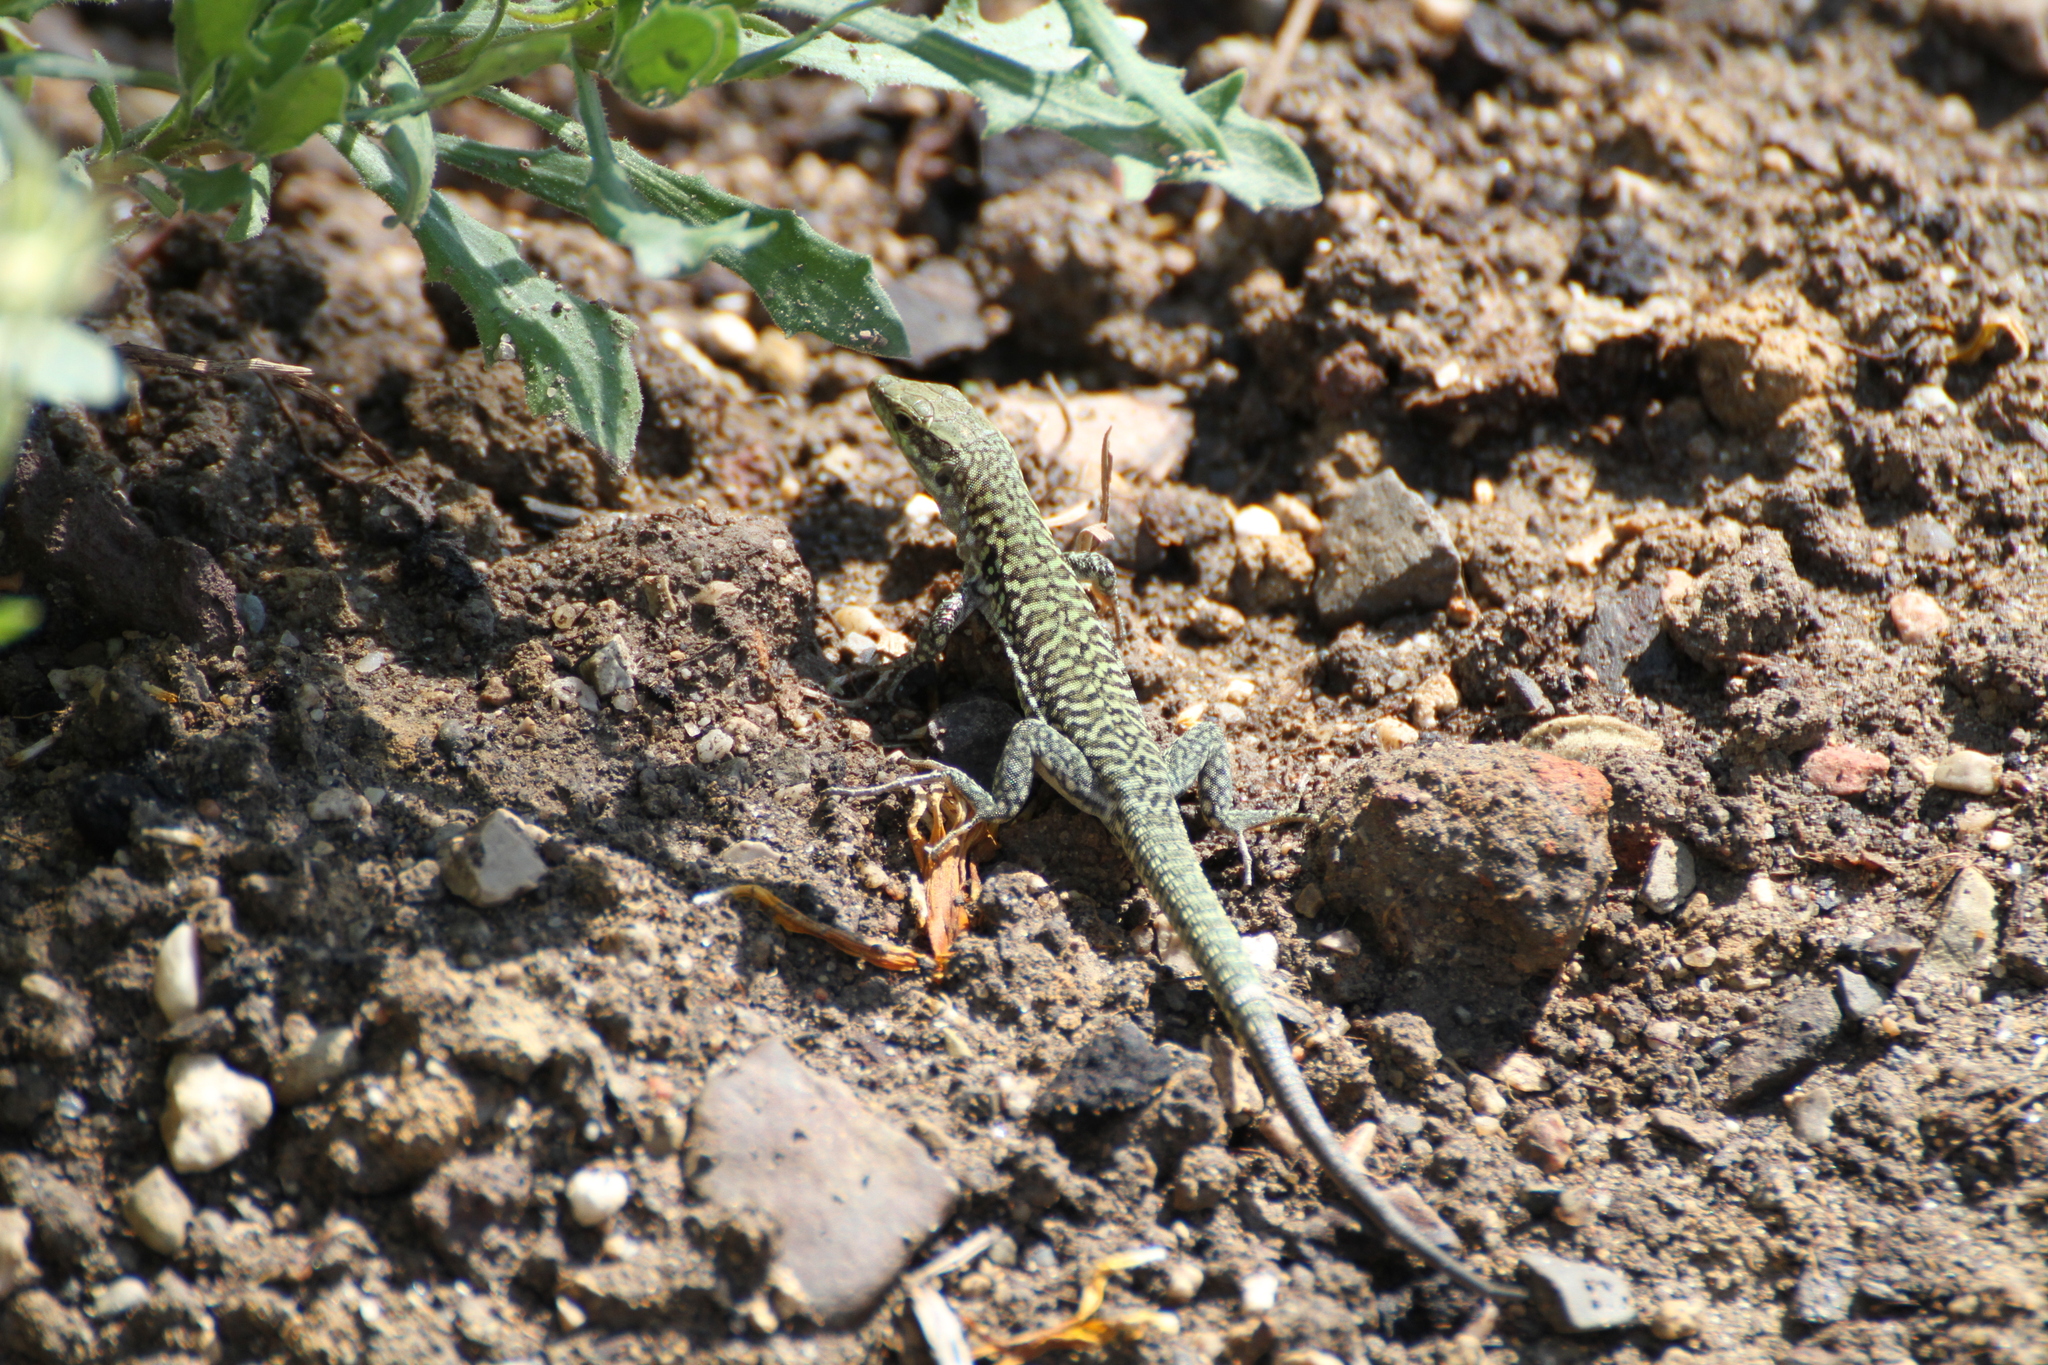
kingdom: Animalia
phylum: Chordata
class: Squamata
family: Lacertidae
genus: Podarcis
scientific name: Podarcis siculus
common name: Italian wall lizard
